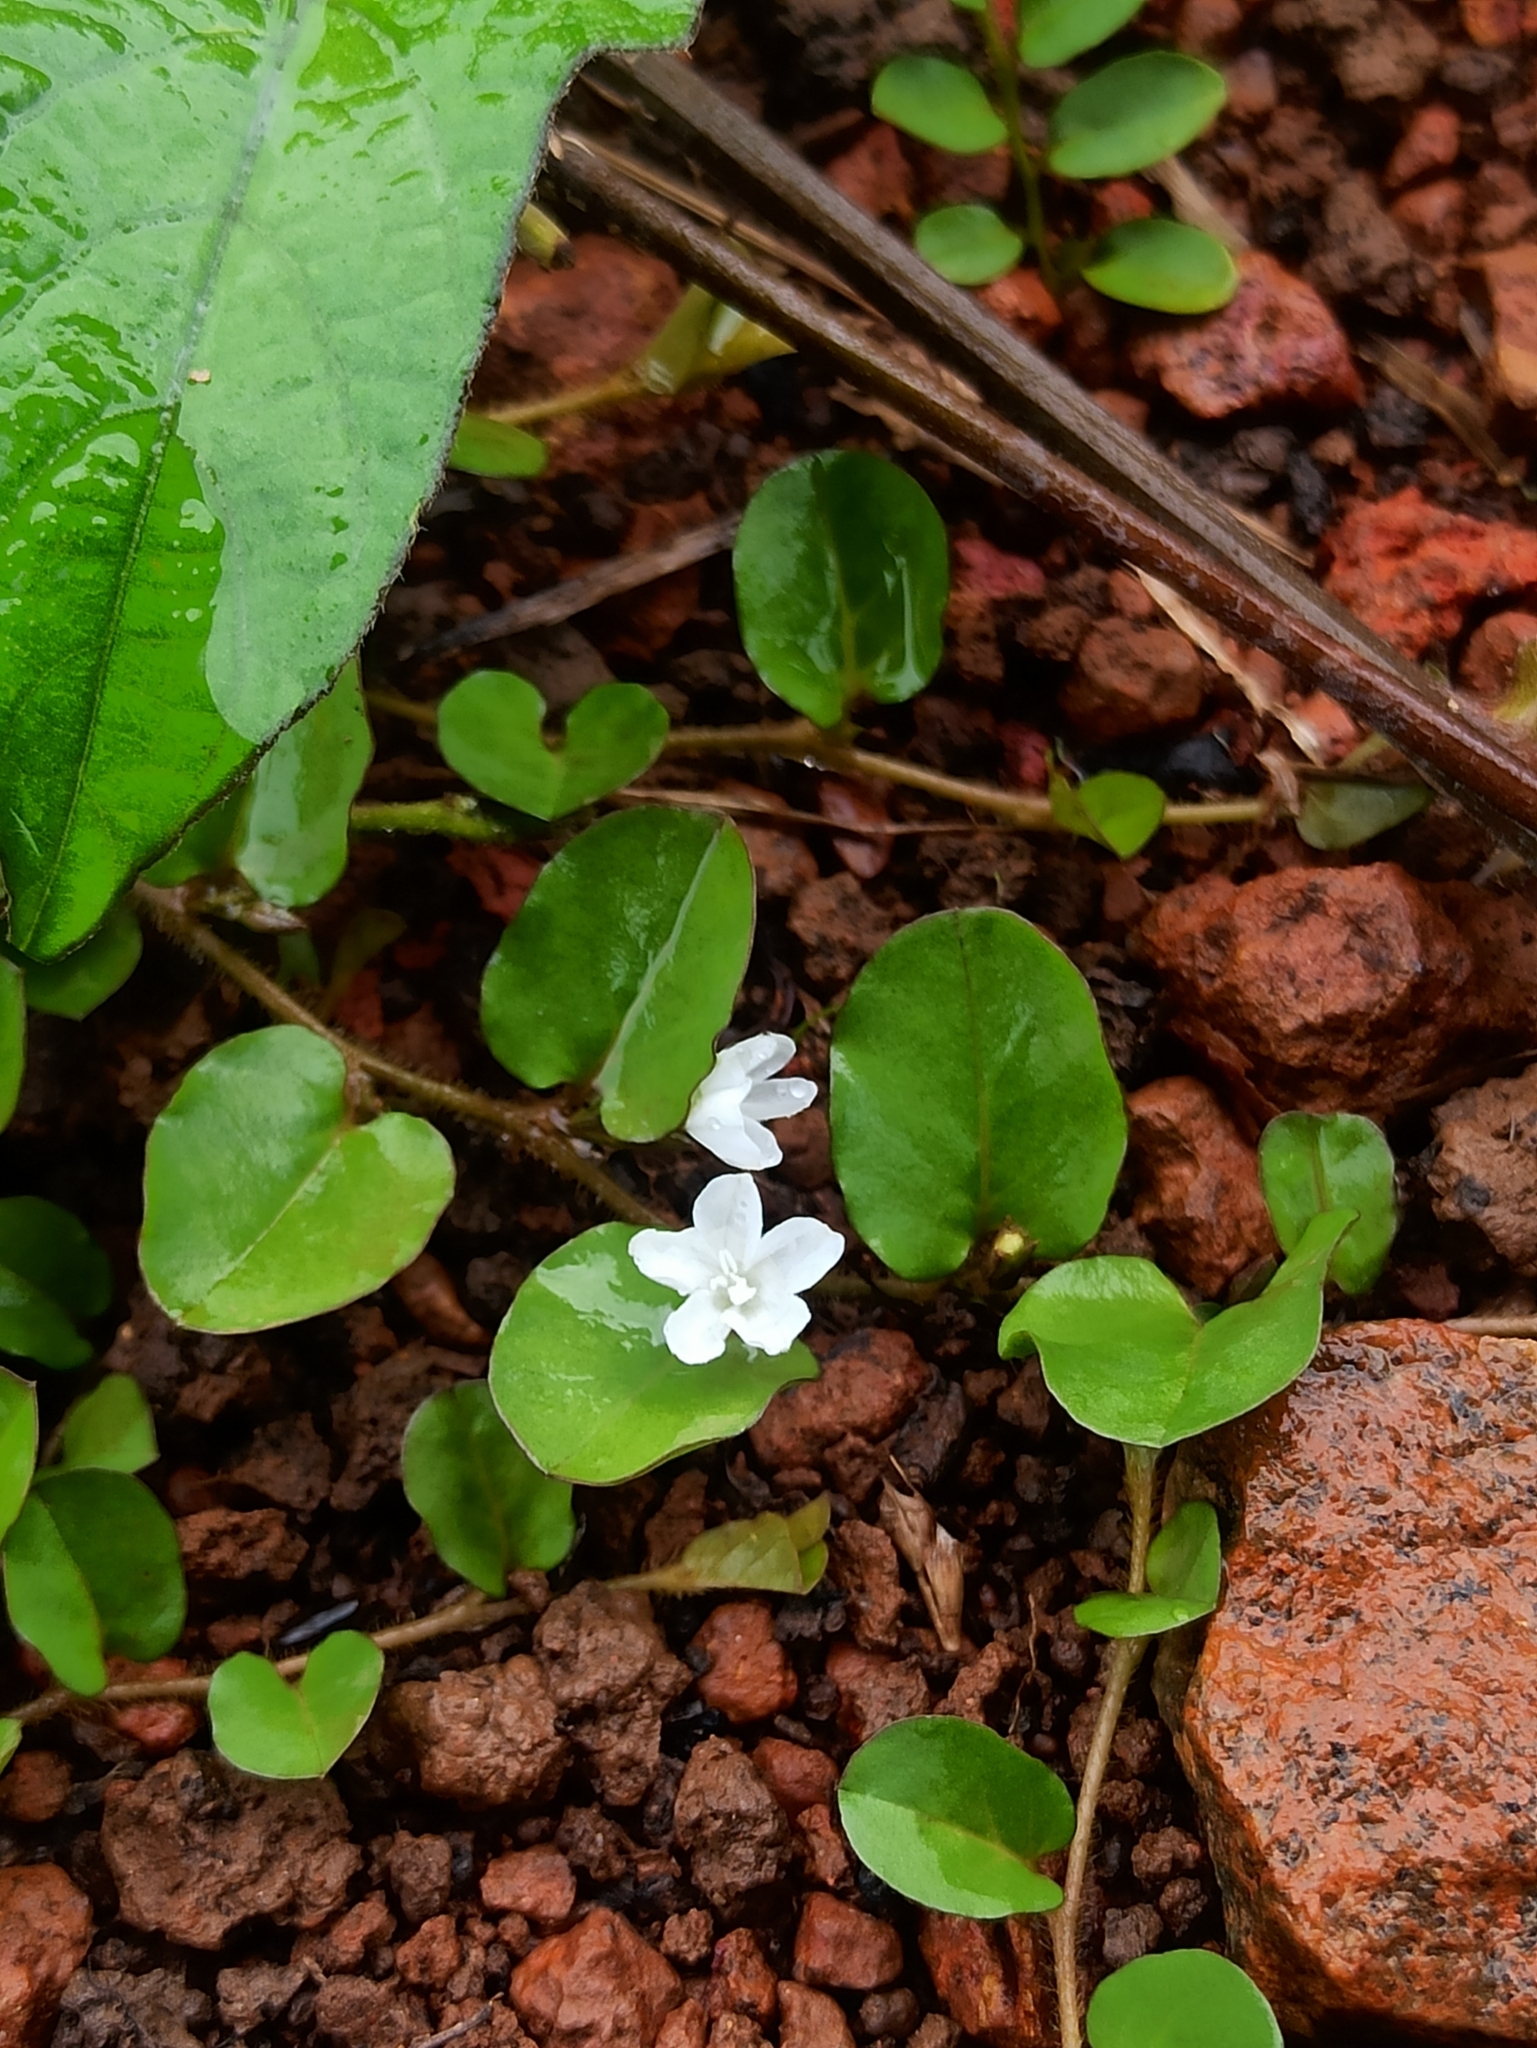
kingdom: Plantae
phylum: Tracheophyta
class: Magnoliopsida
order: Solanales
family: Convolvulaceae
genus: Evolvulus
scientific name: Evolvulus nummularius
